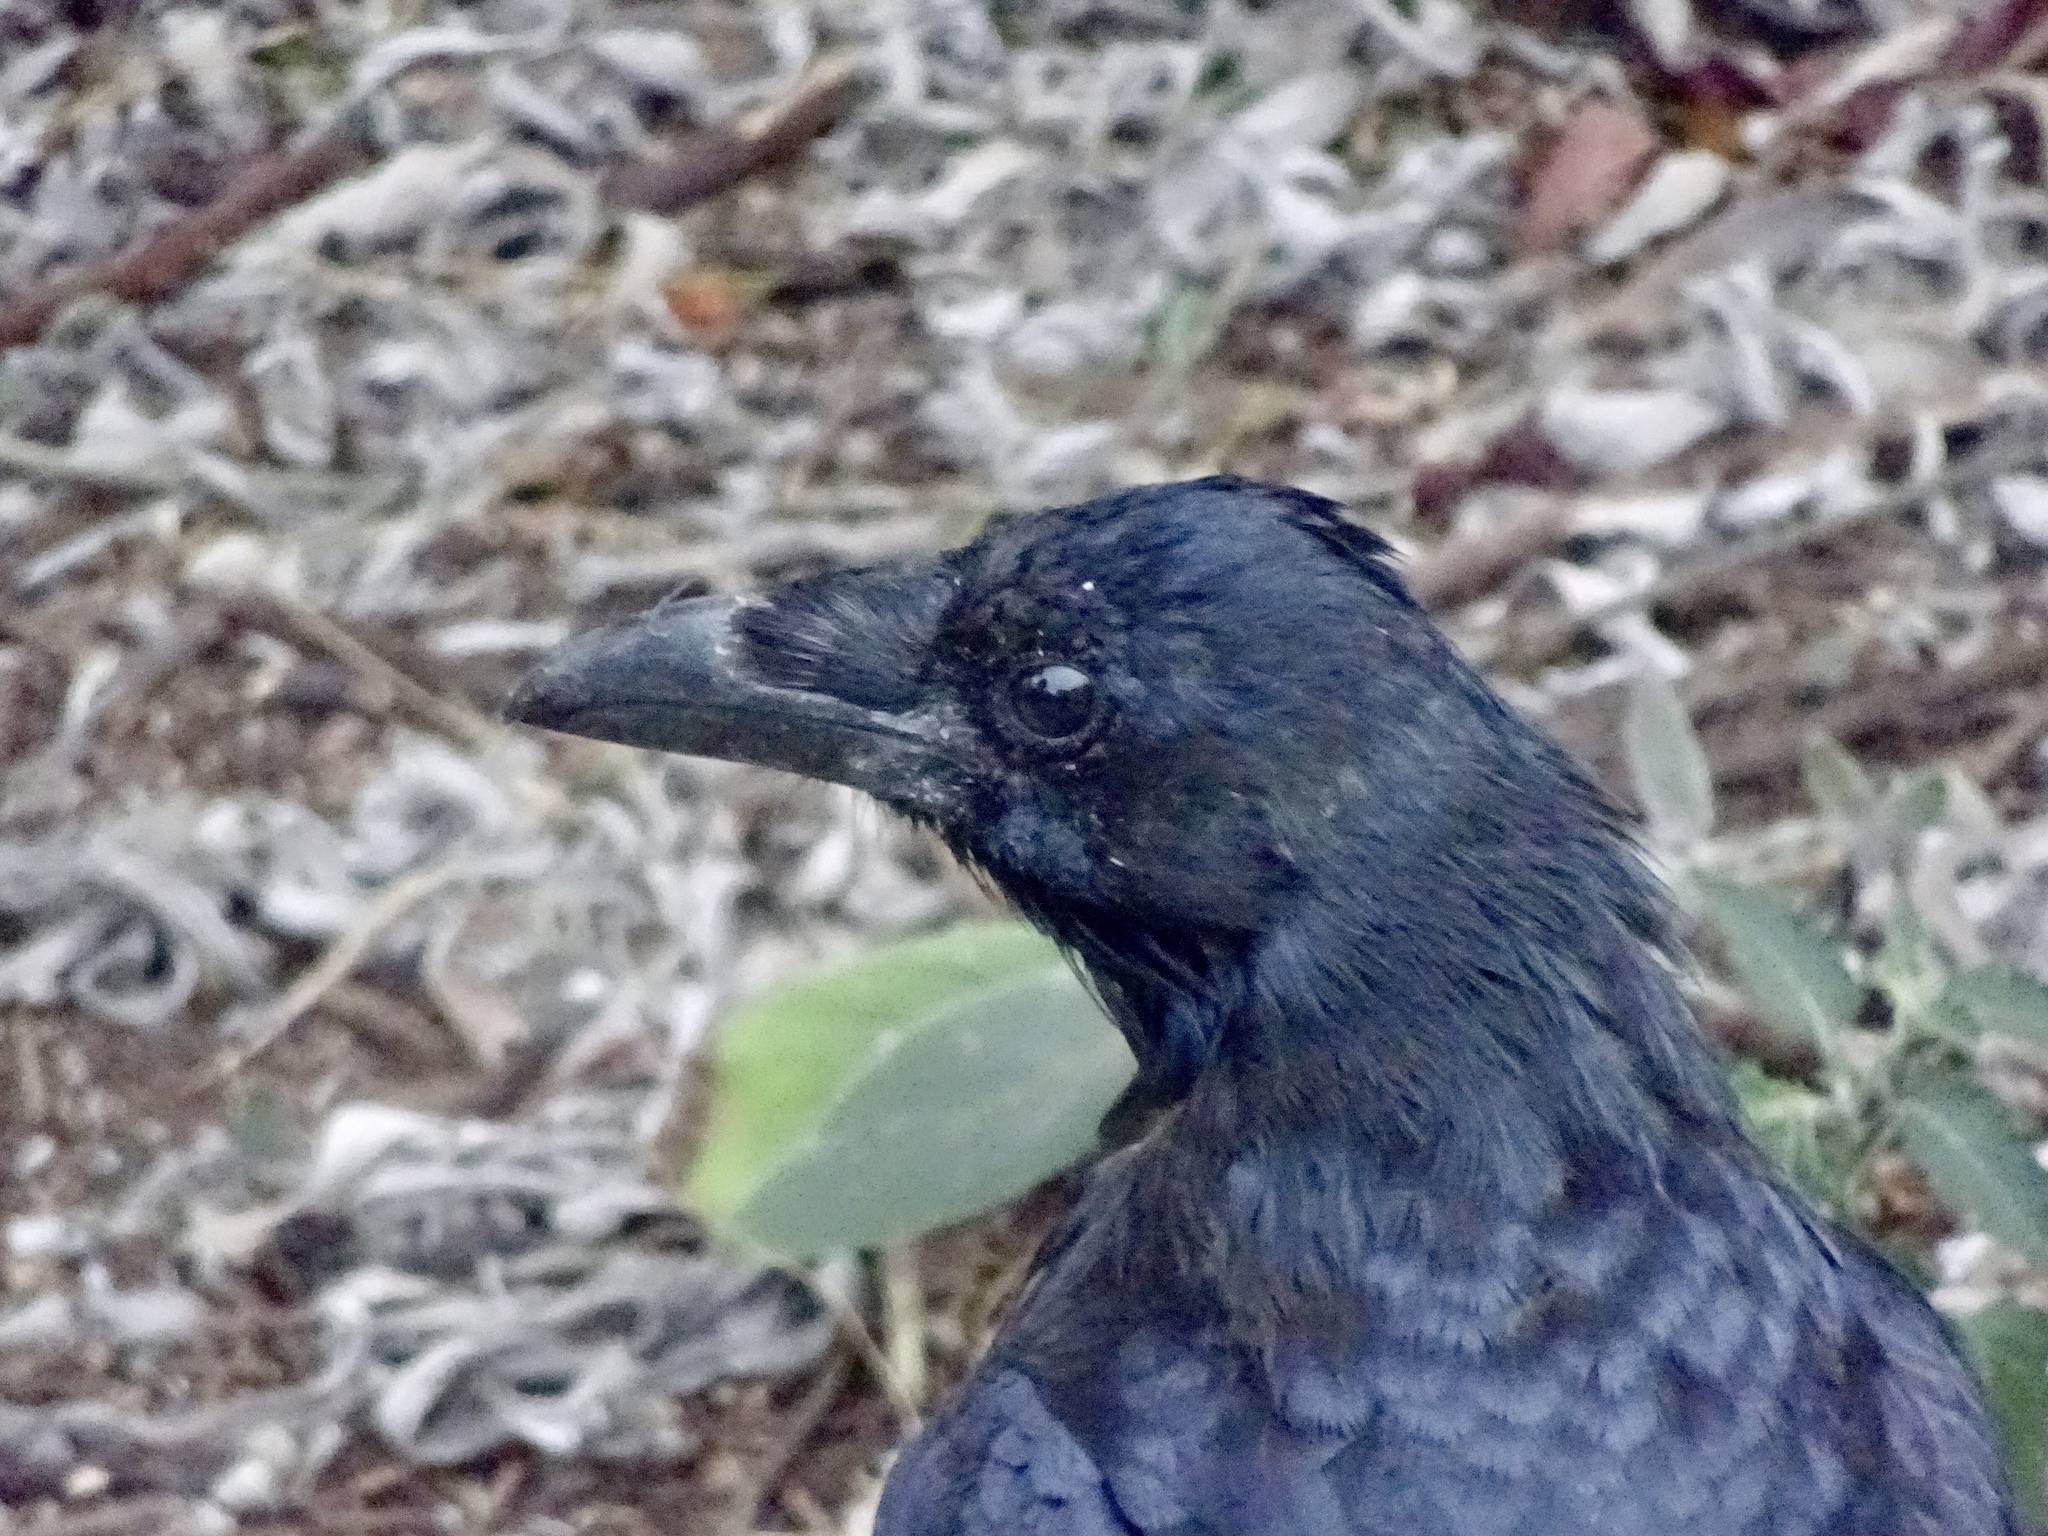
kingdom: Animalia
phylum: Chordata
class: Aves
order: Passeriformes
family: Corvidae
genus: Corvus
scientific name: Corvus brachyrhynchos
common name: American crow
